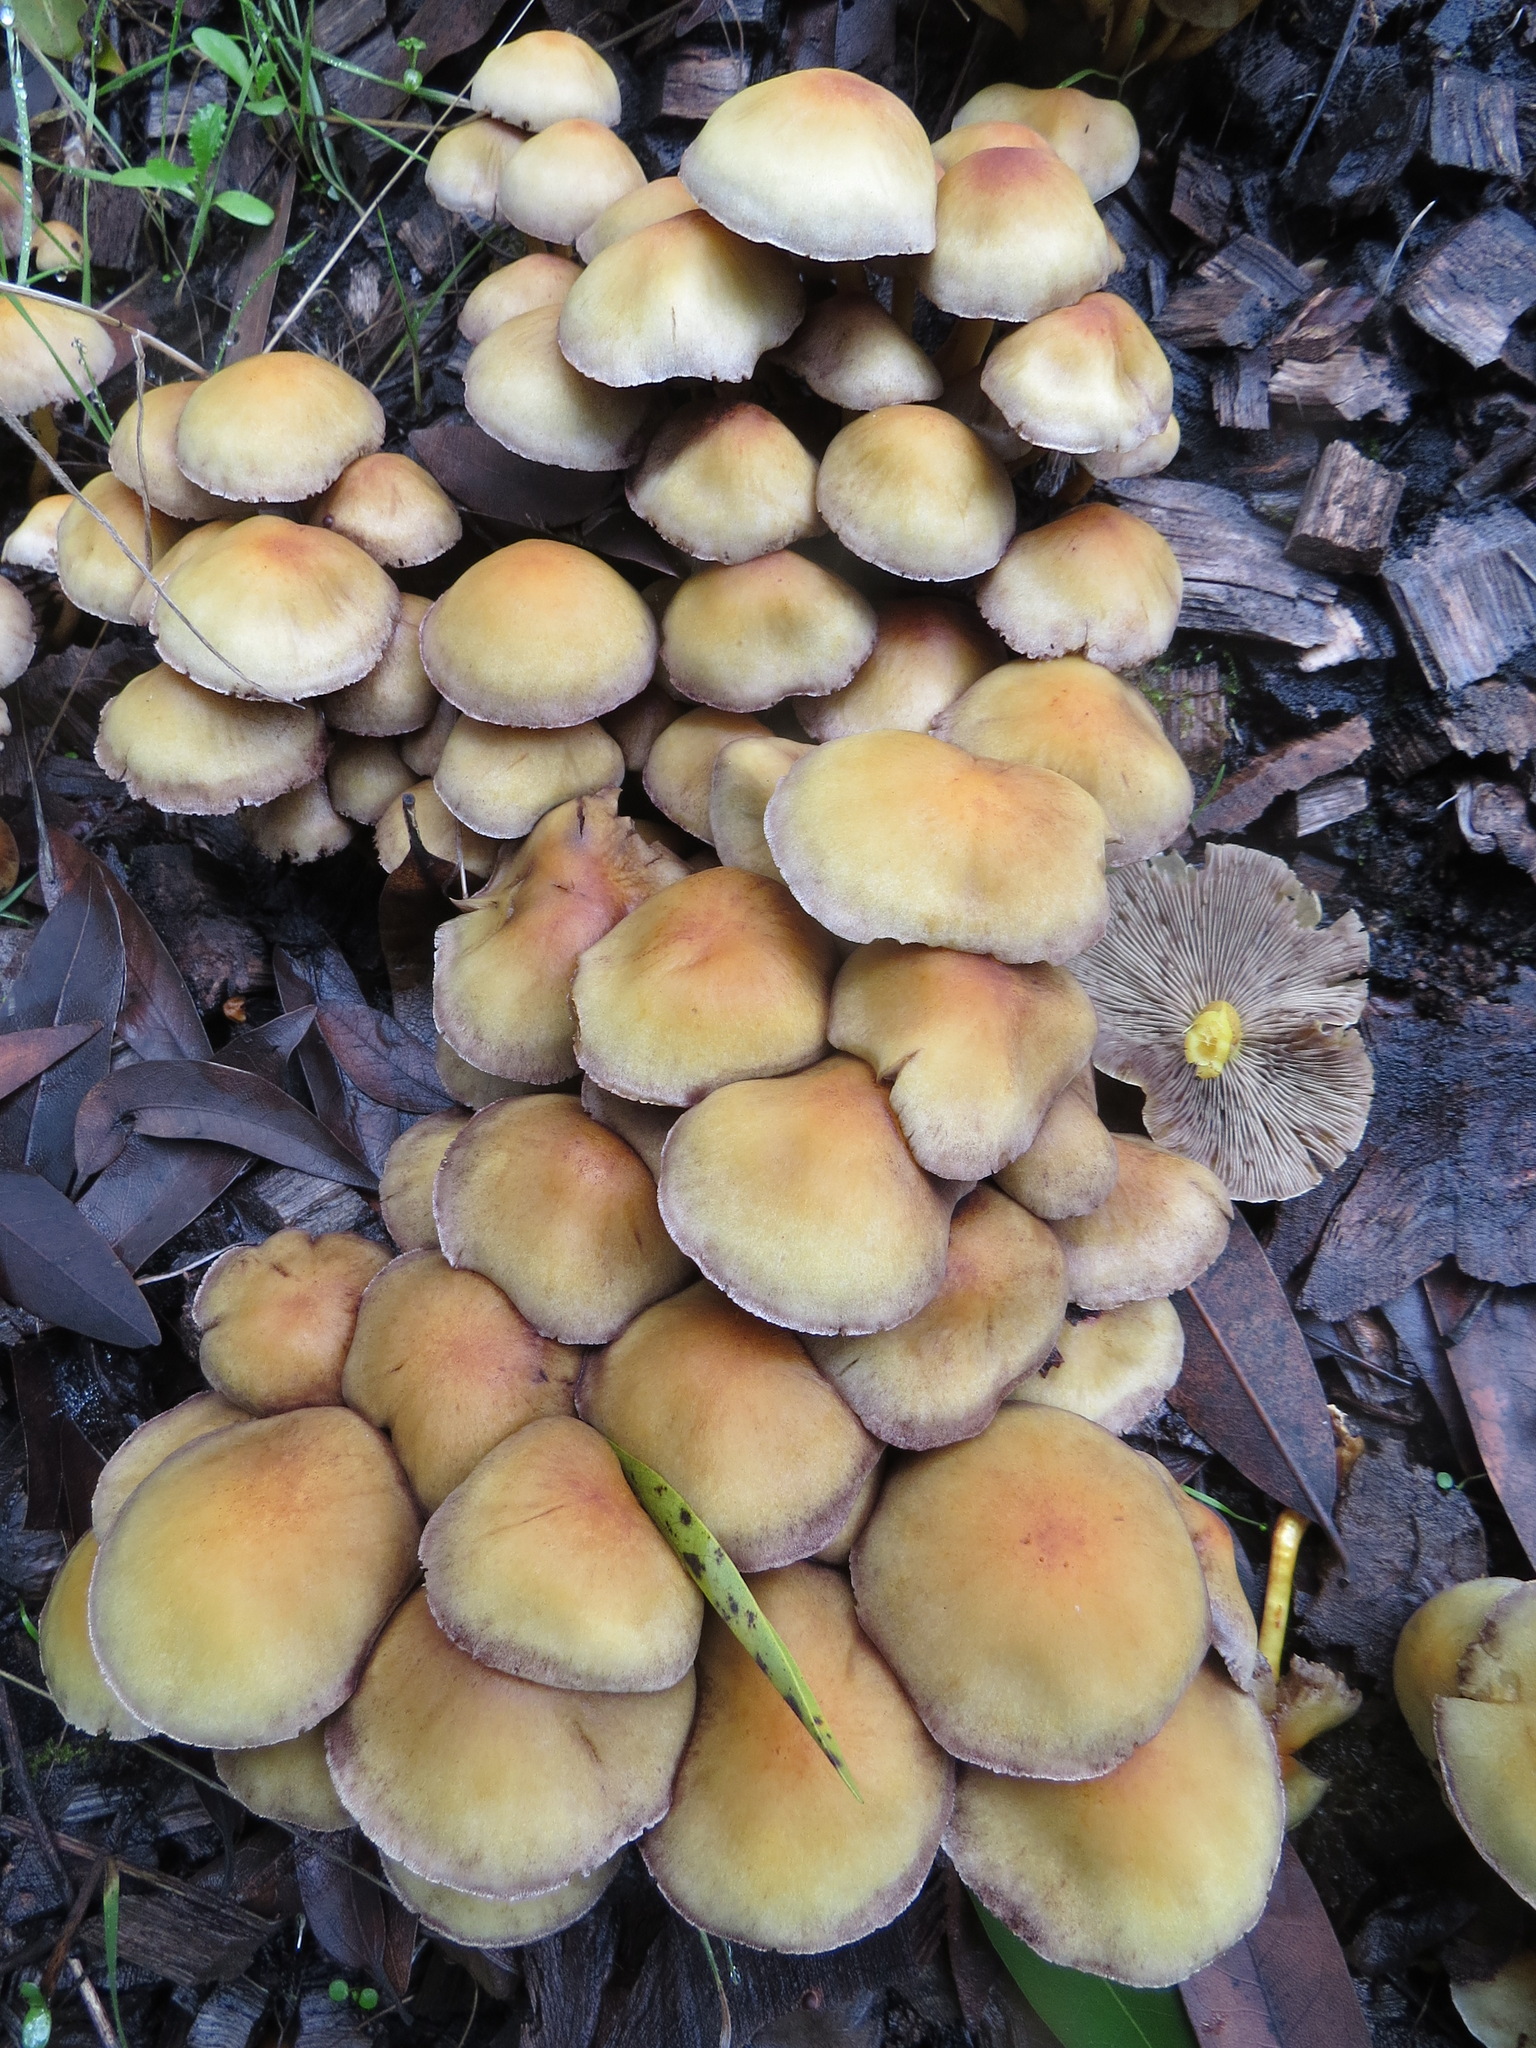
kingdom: Fungi
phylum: Basidiomycota
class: Agaricomycetes
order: Agaricales
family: Strophariaceae
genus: Hypholoma
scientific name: Hypholoma capnoides
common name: Conifer tuft
